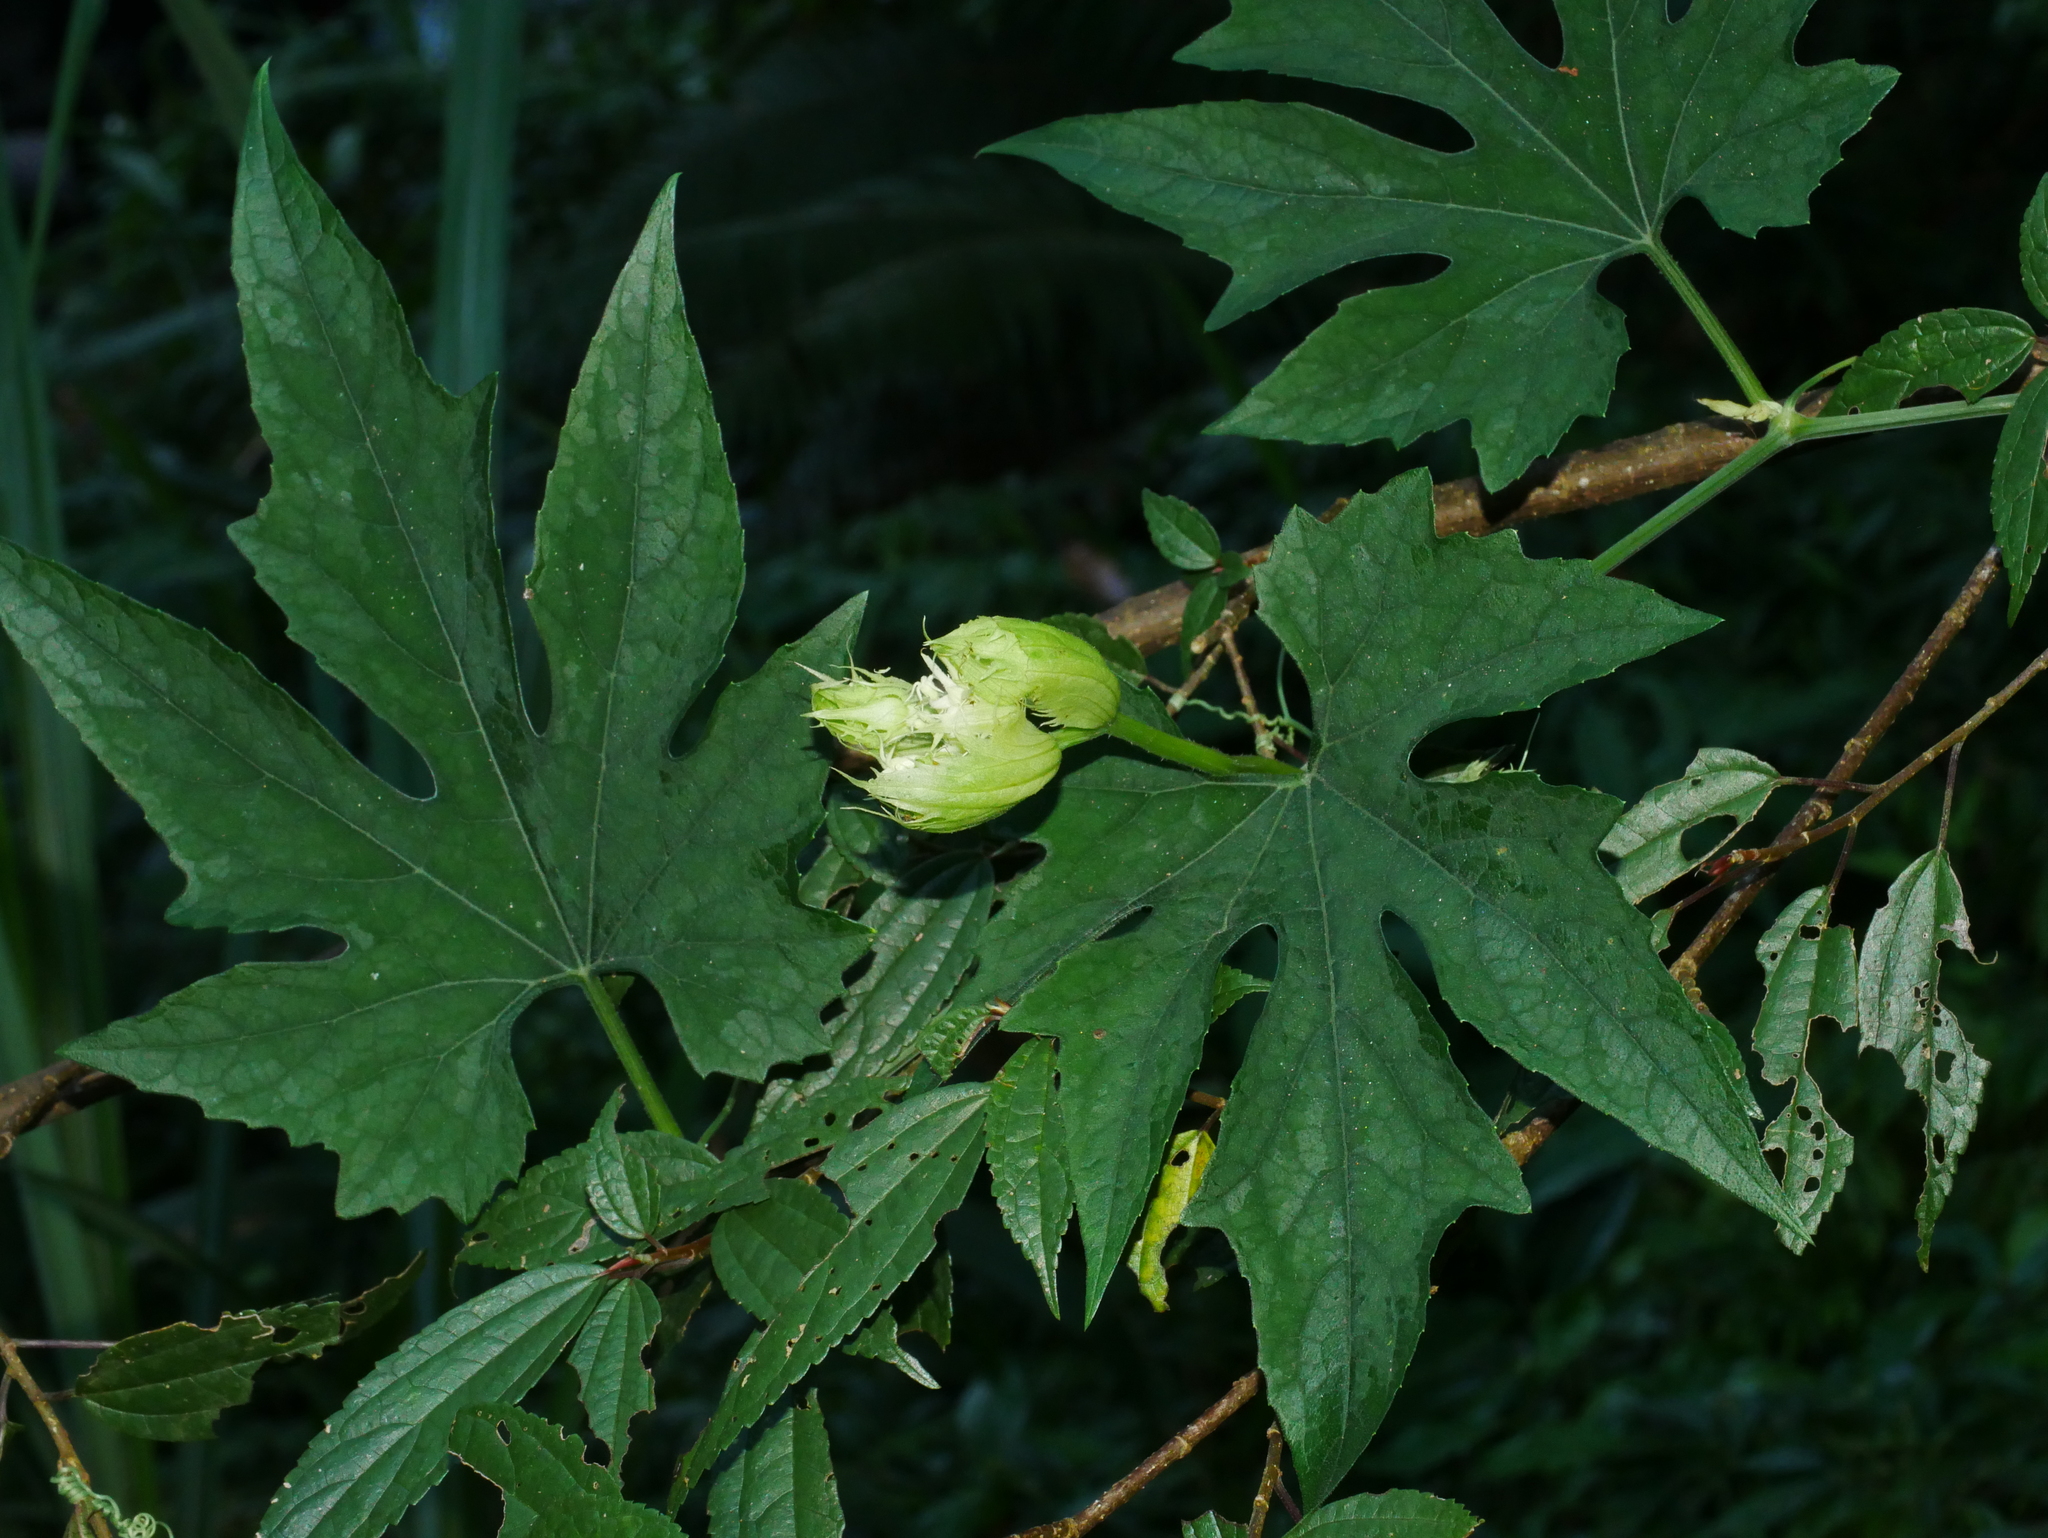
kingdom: Plantae
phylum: Tracheophyta
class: Magnoliopsida
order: Cucurbitales
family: Cucurbitaceae
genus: Trichosanthes
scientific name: Trichosanthes laceribractea
